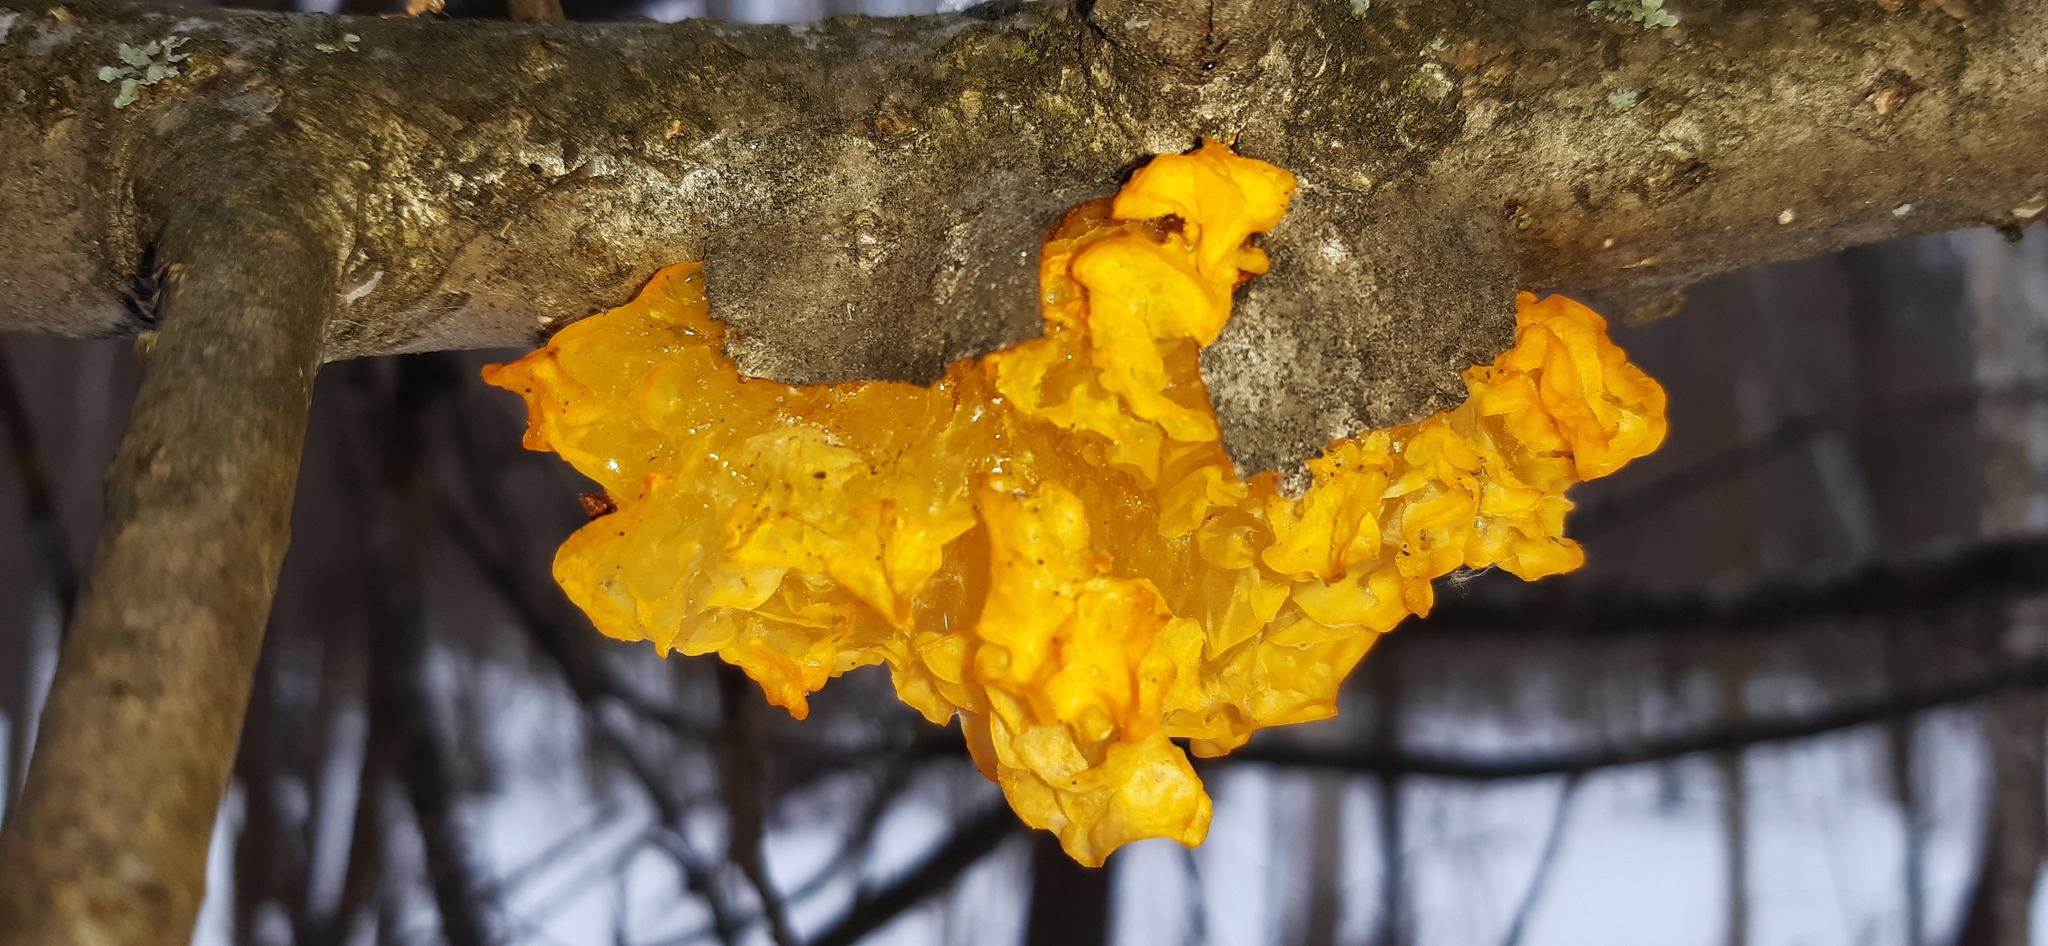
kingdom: Fungi
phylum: Basidiomycota
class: Tremellomycetes
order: Tremellales
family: Tremellaceae
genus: Tremella
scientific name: Tremella mesenterica
